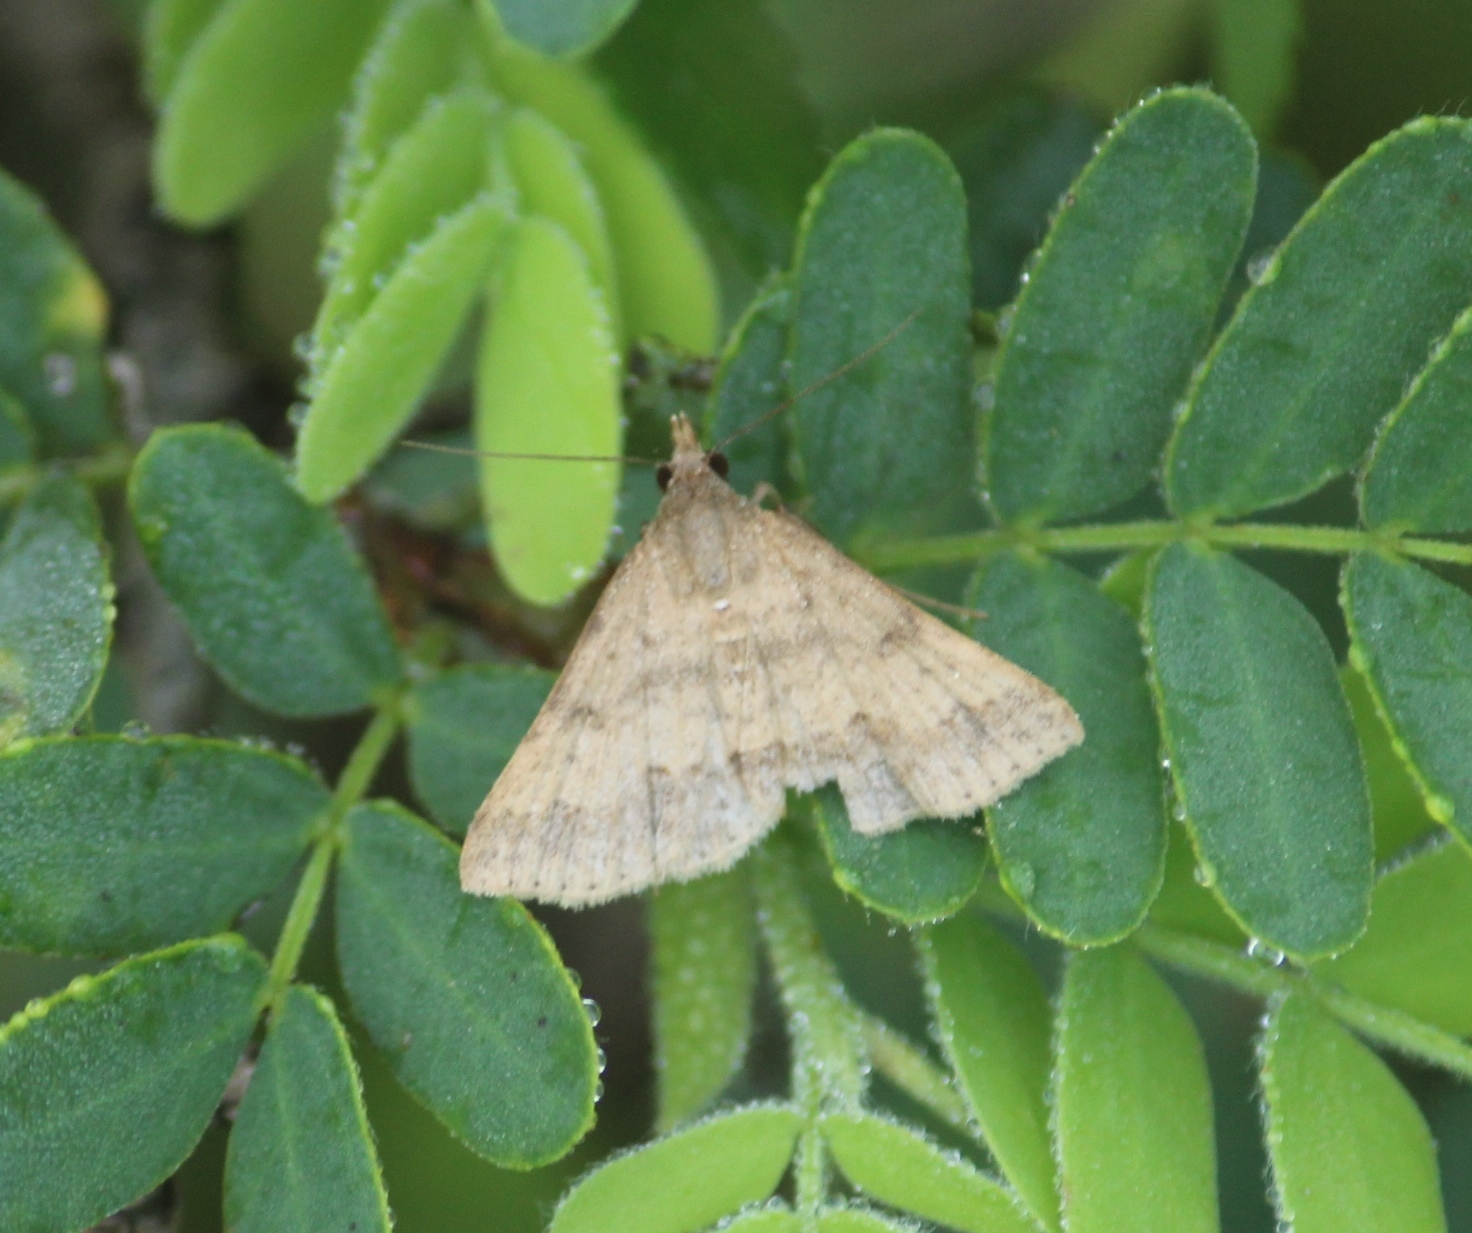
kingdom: Animalia
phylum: Arthropoda
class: Insecta
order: Lepidoptera
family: Erebidae
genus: Gesonia
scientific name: Gesonia obeditalis
